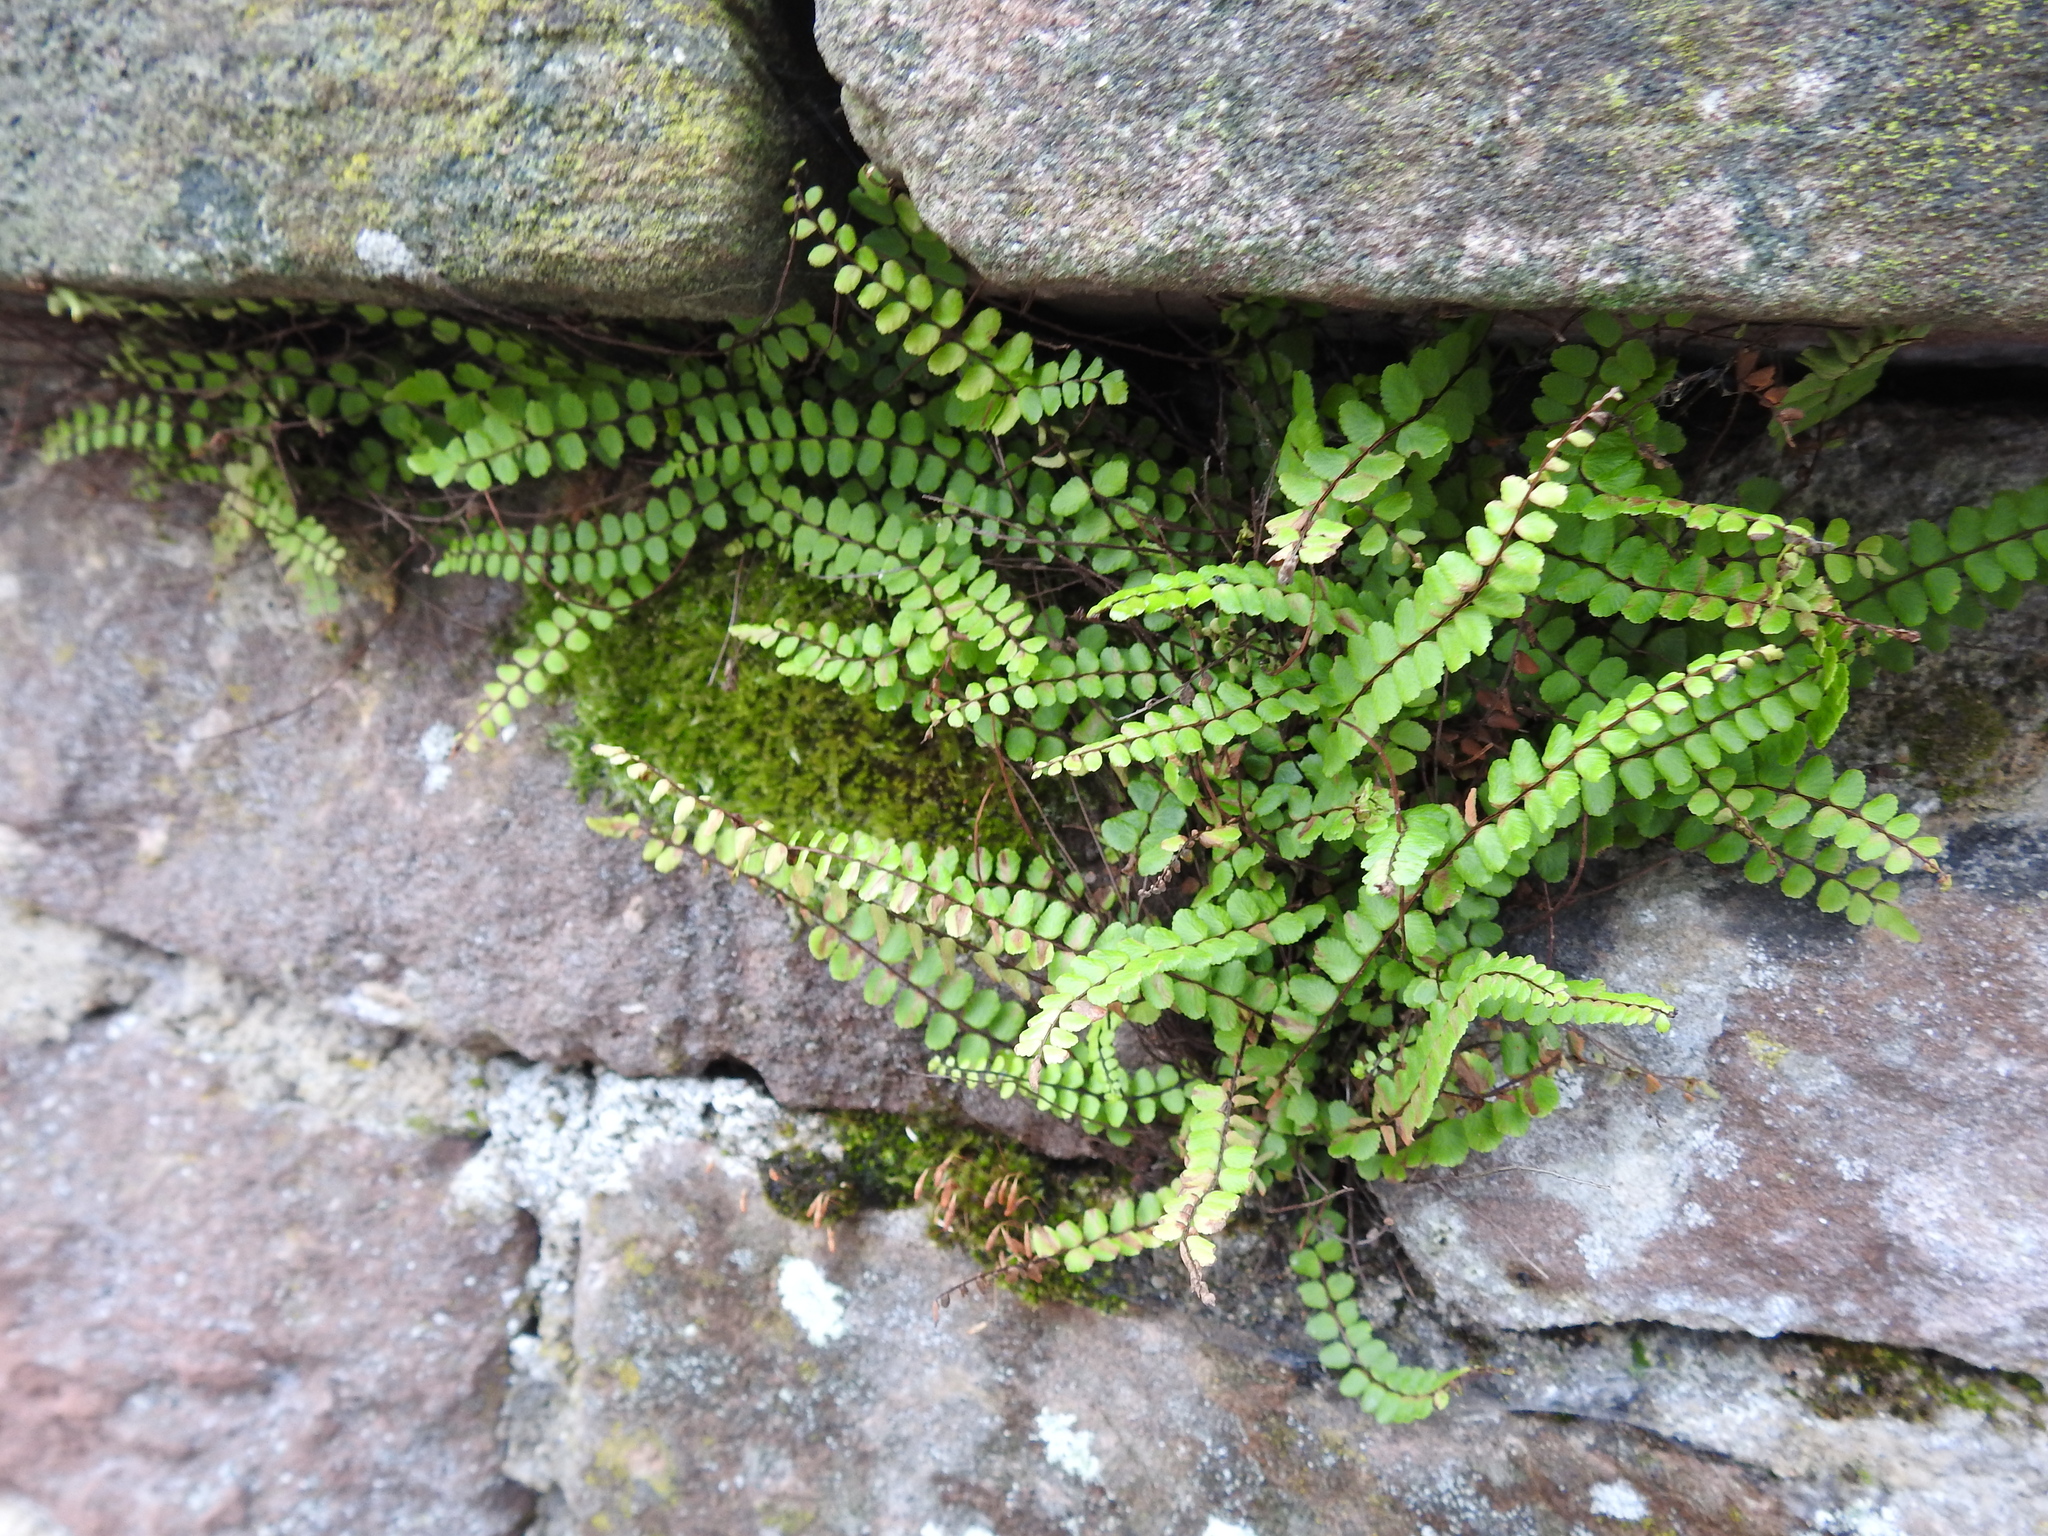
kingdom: Plantae
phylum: Tracheophyta
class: Polypodiopsida
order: Polypodiales
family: Aspleniaceae
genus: Asplenium
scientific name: Asplenium trichomanes
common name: Maidenhair spleenwort
